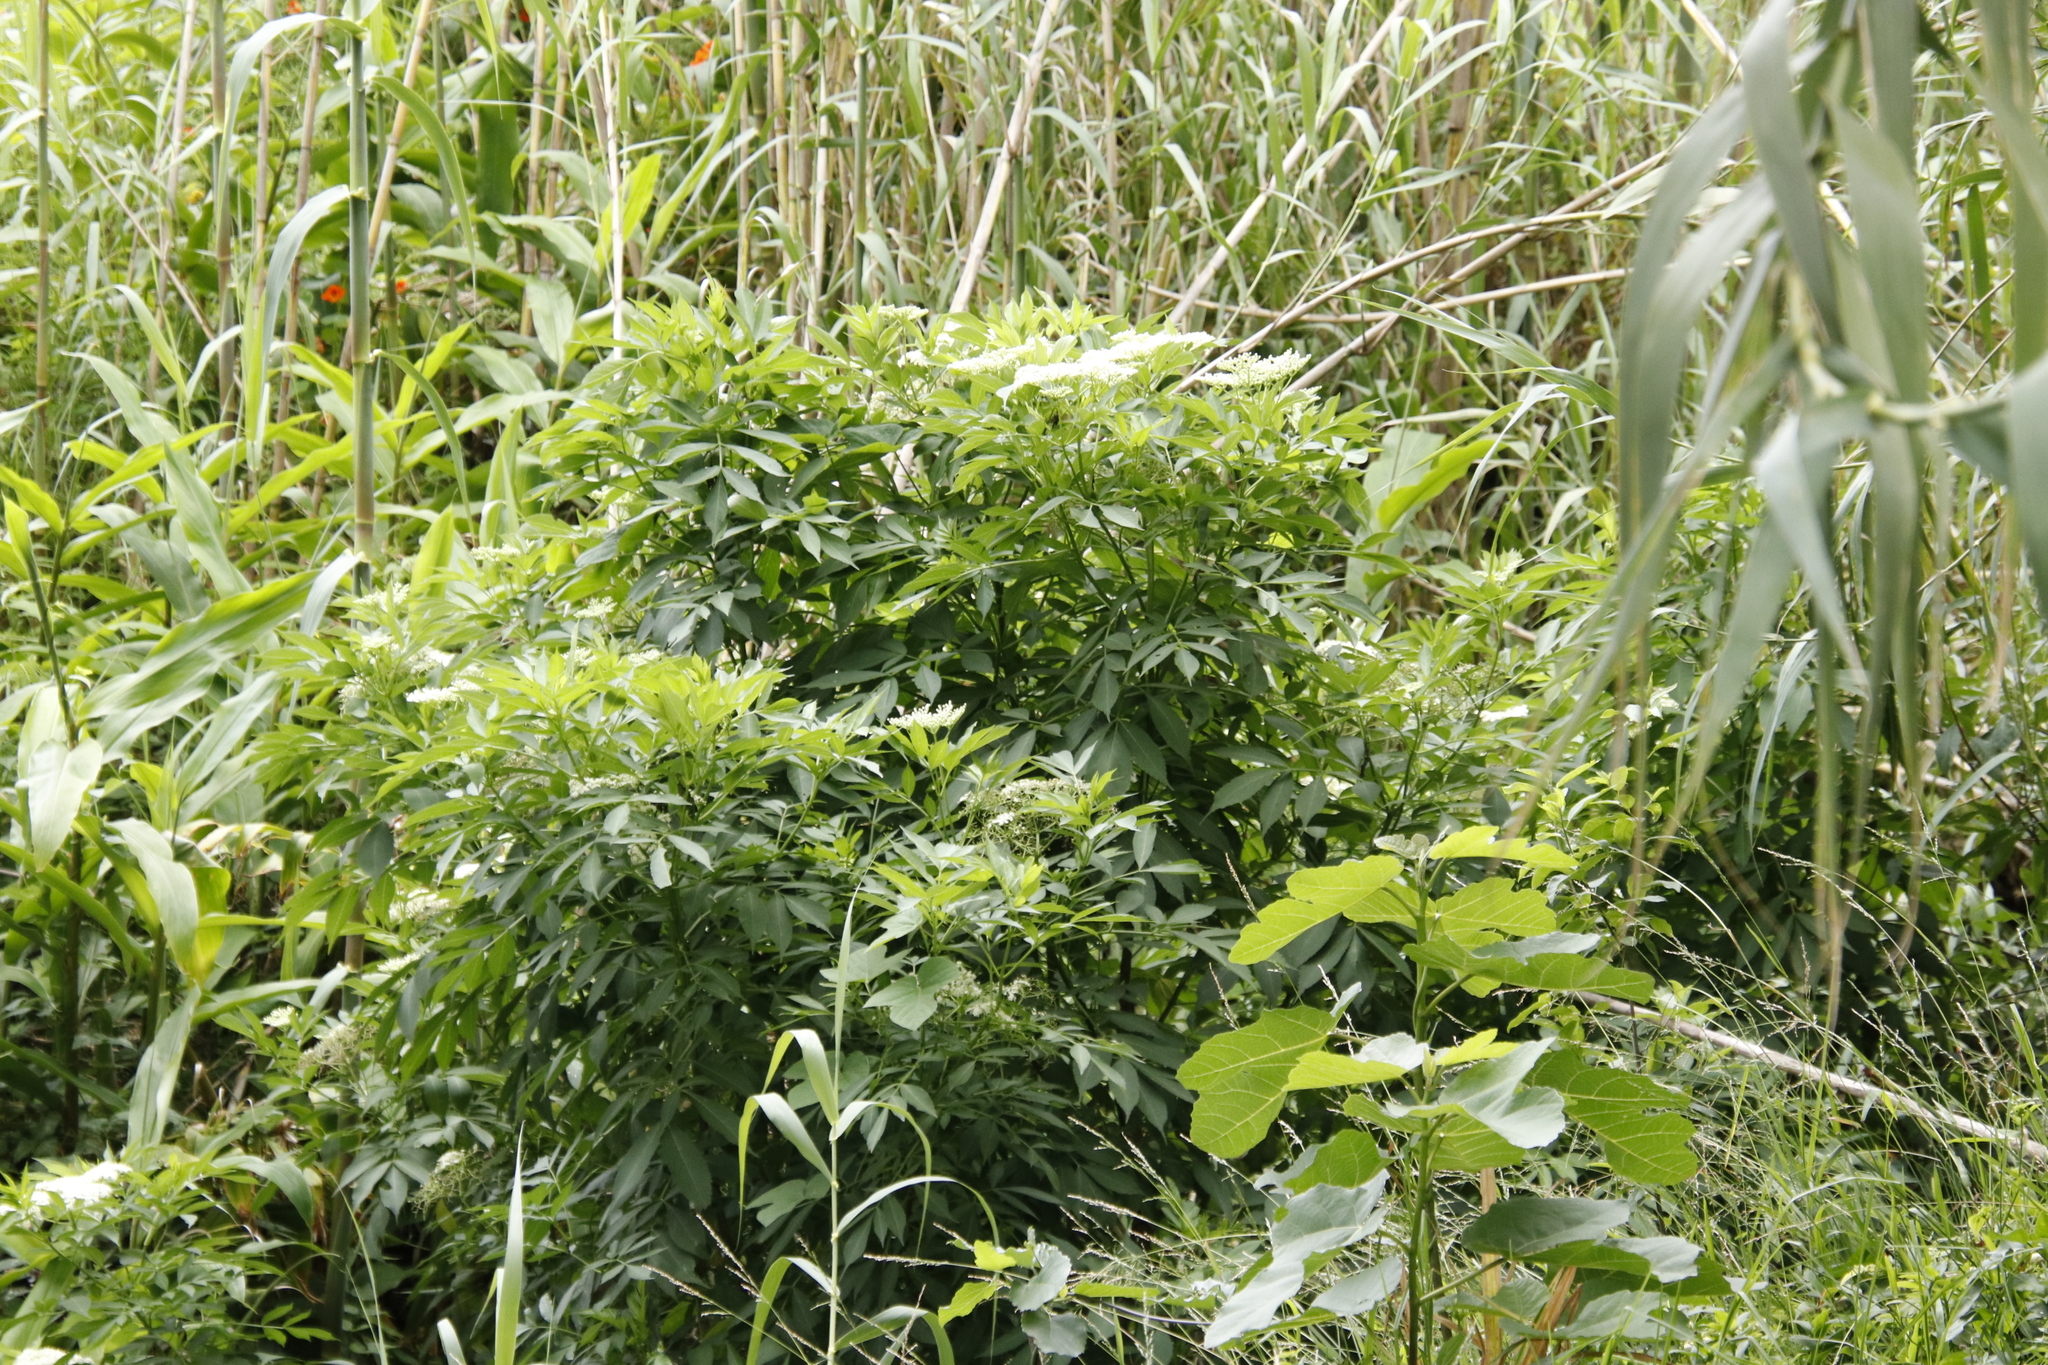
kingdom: Plantae
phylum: Tracheophyta
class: Magnoliopsida
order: Dipsacales
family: Viburnaceae
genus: Sambucus
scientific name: Sambucus nigra
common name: Elder
